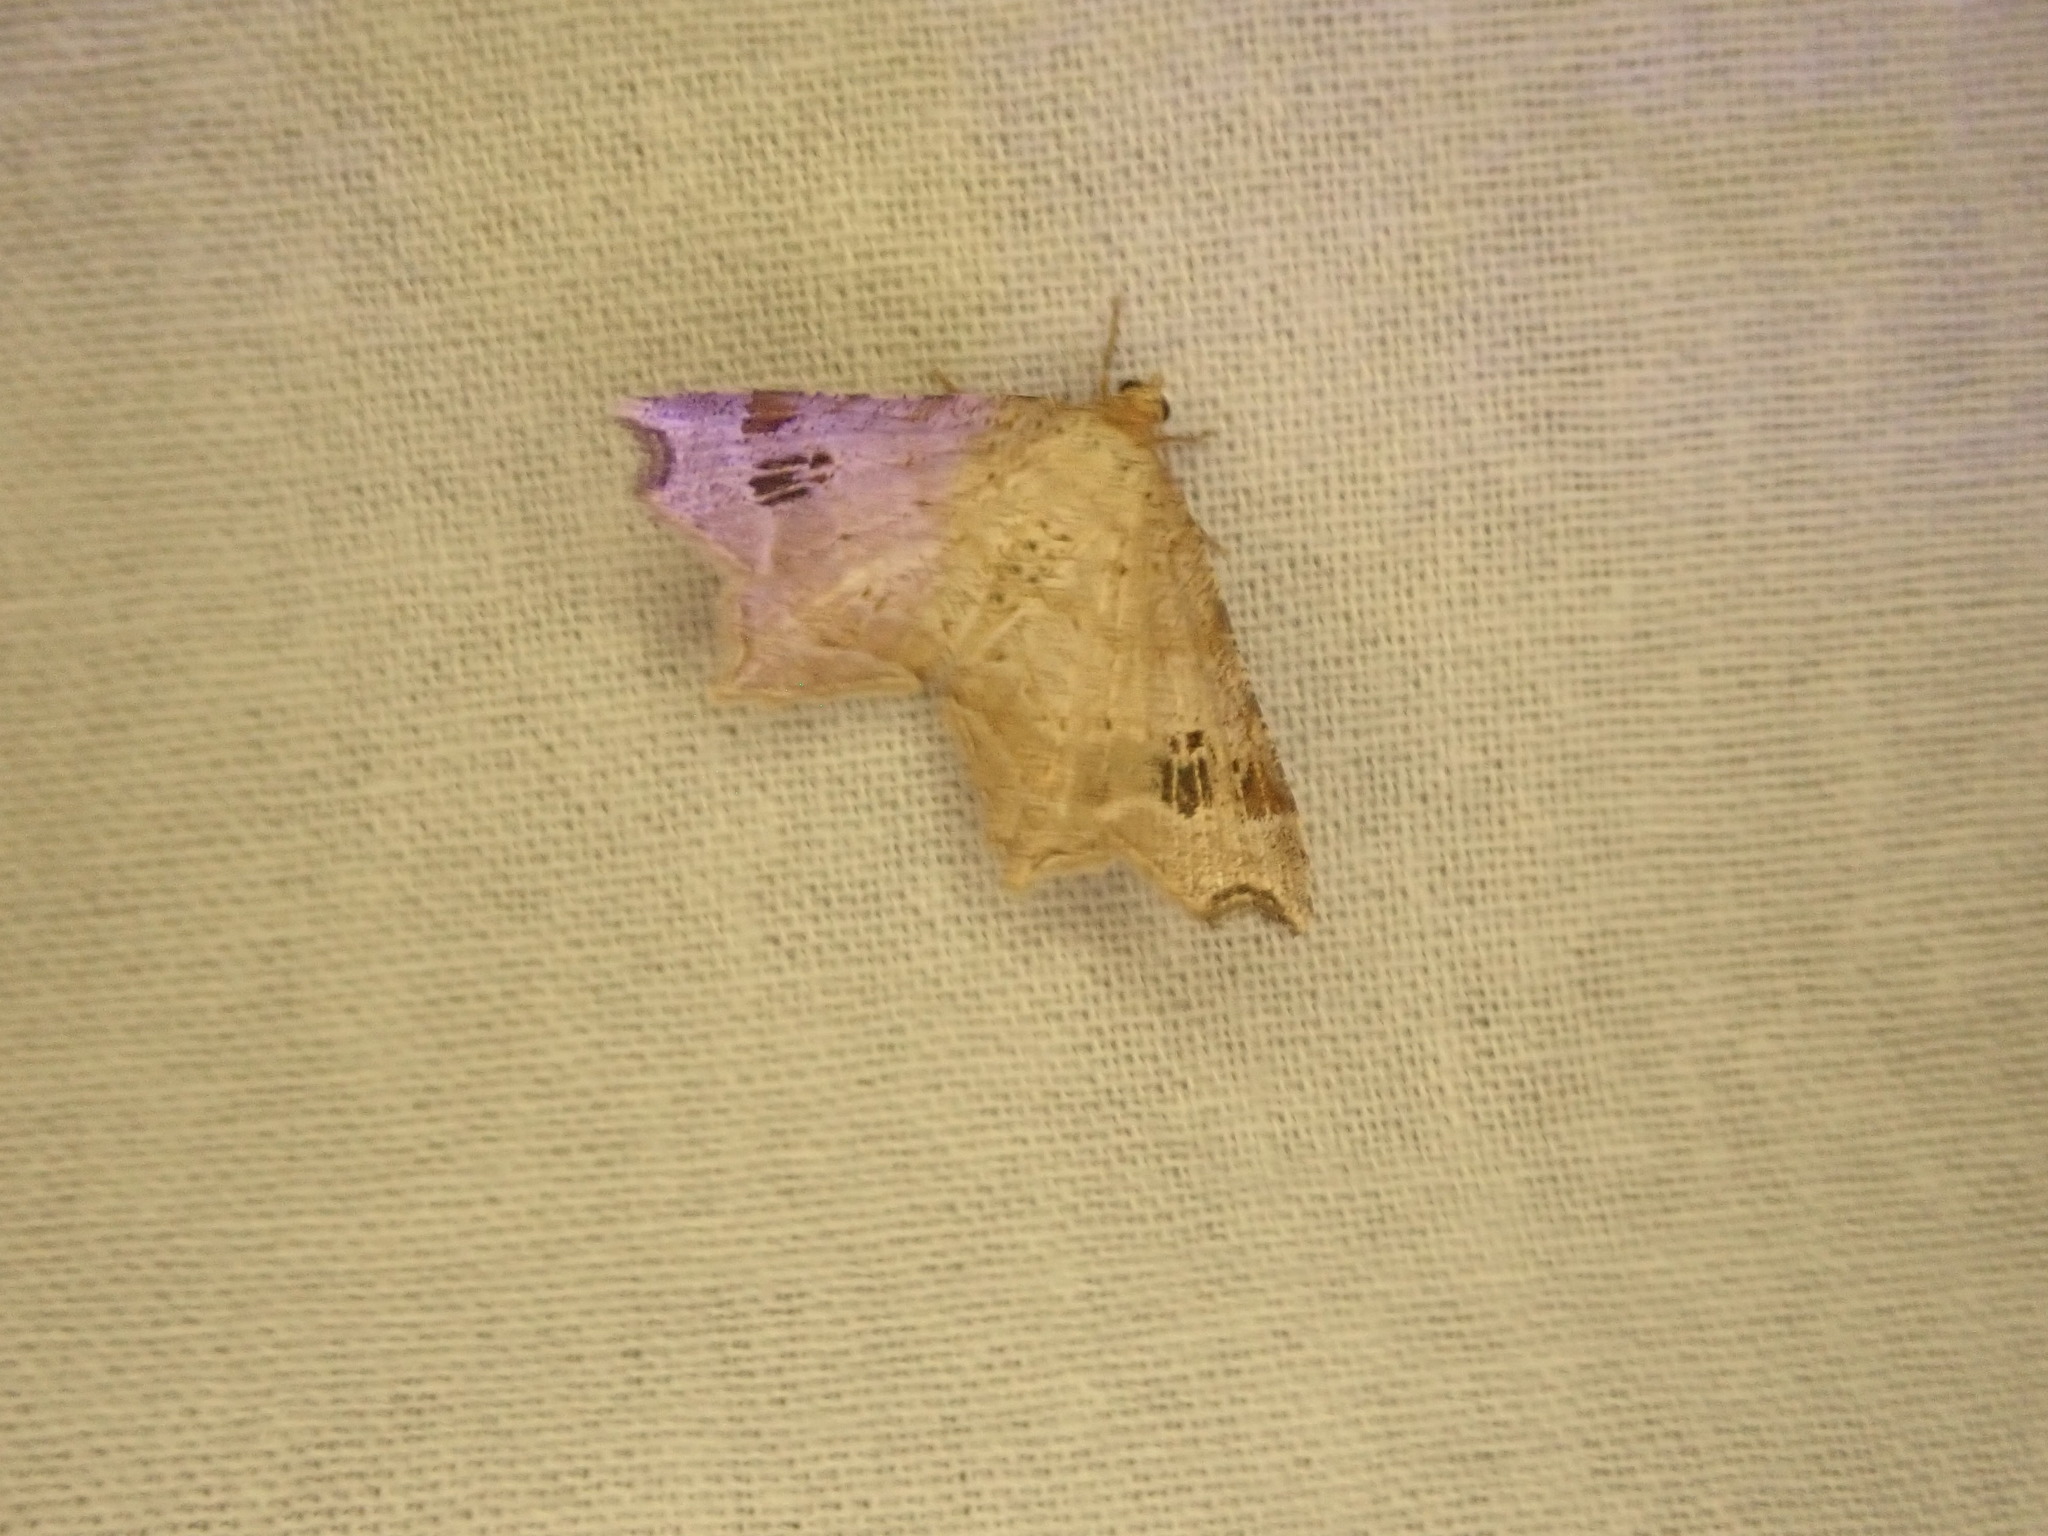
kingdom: Animalia
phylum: Arthropoda
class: Insecta
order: Lepidoptera
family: Geometridae
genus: Macaria
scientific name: Macaria aemulataria
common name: Common angle
